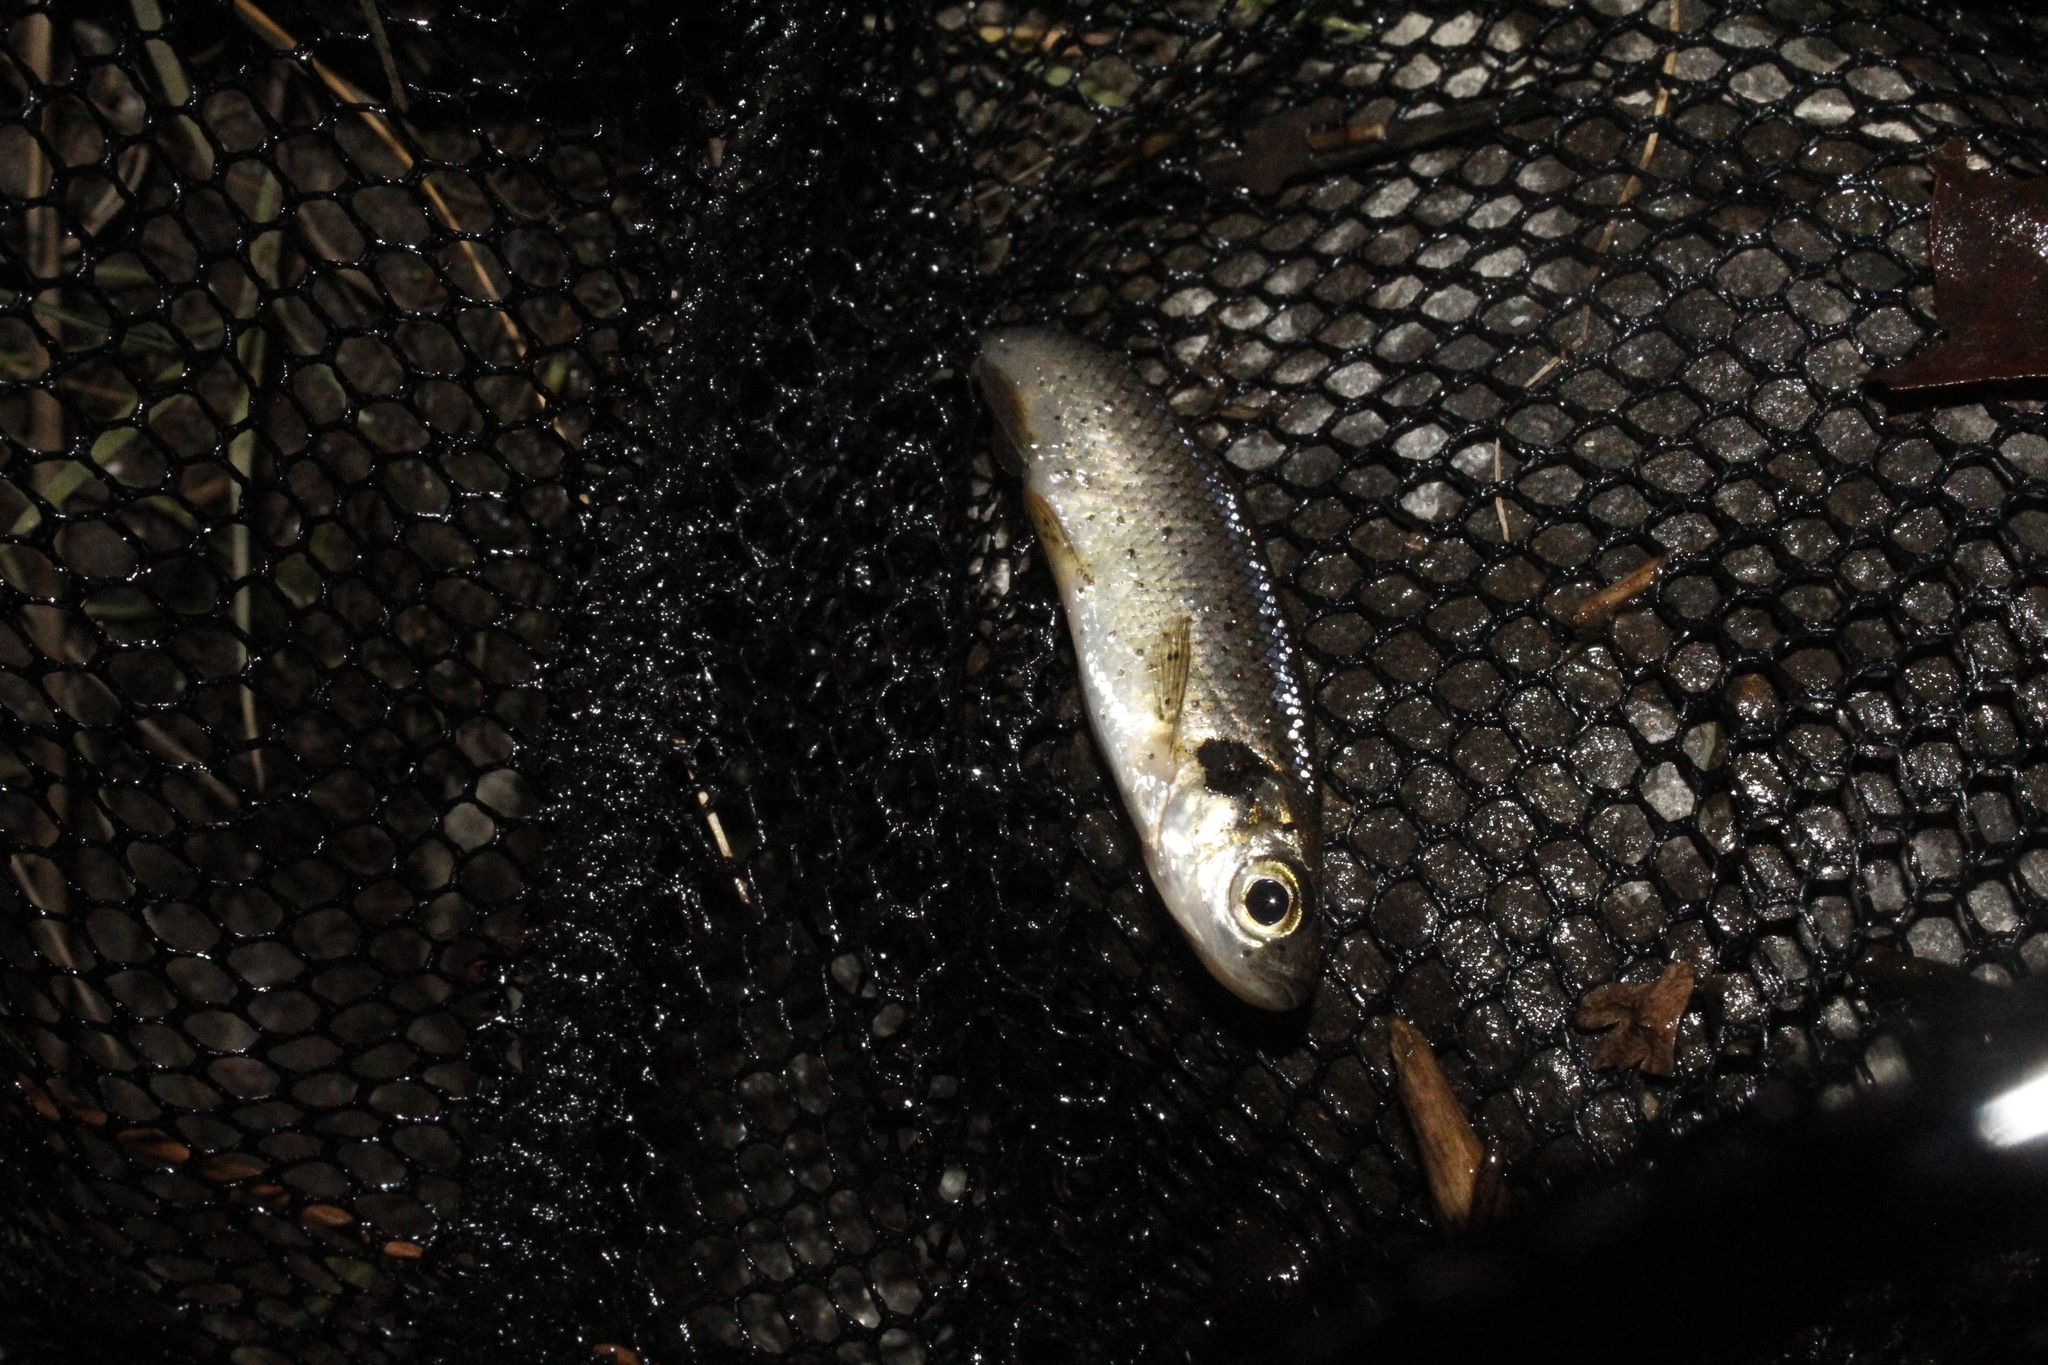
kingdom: Animalia
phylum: Platyhelminthes
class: Trematoda
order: Diplostomida
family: Diplostomidae
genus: Neascus
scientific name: Neascus
